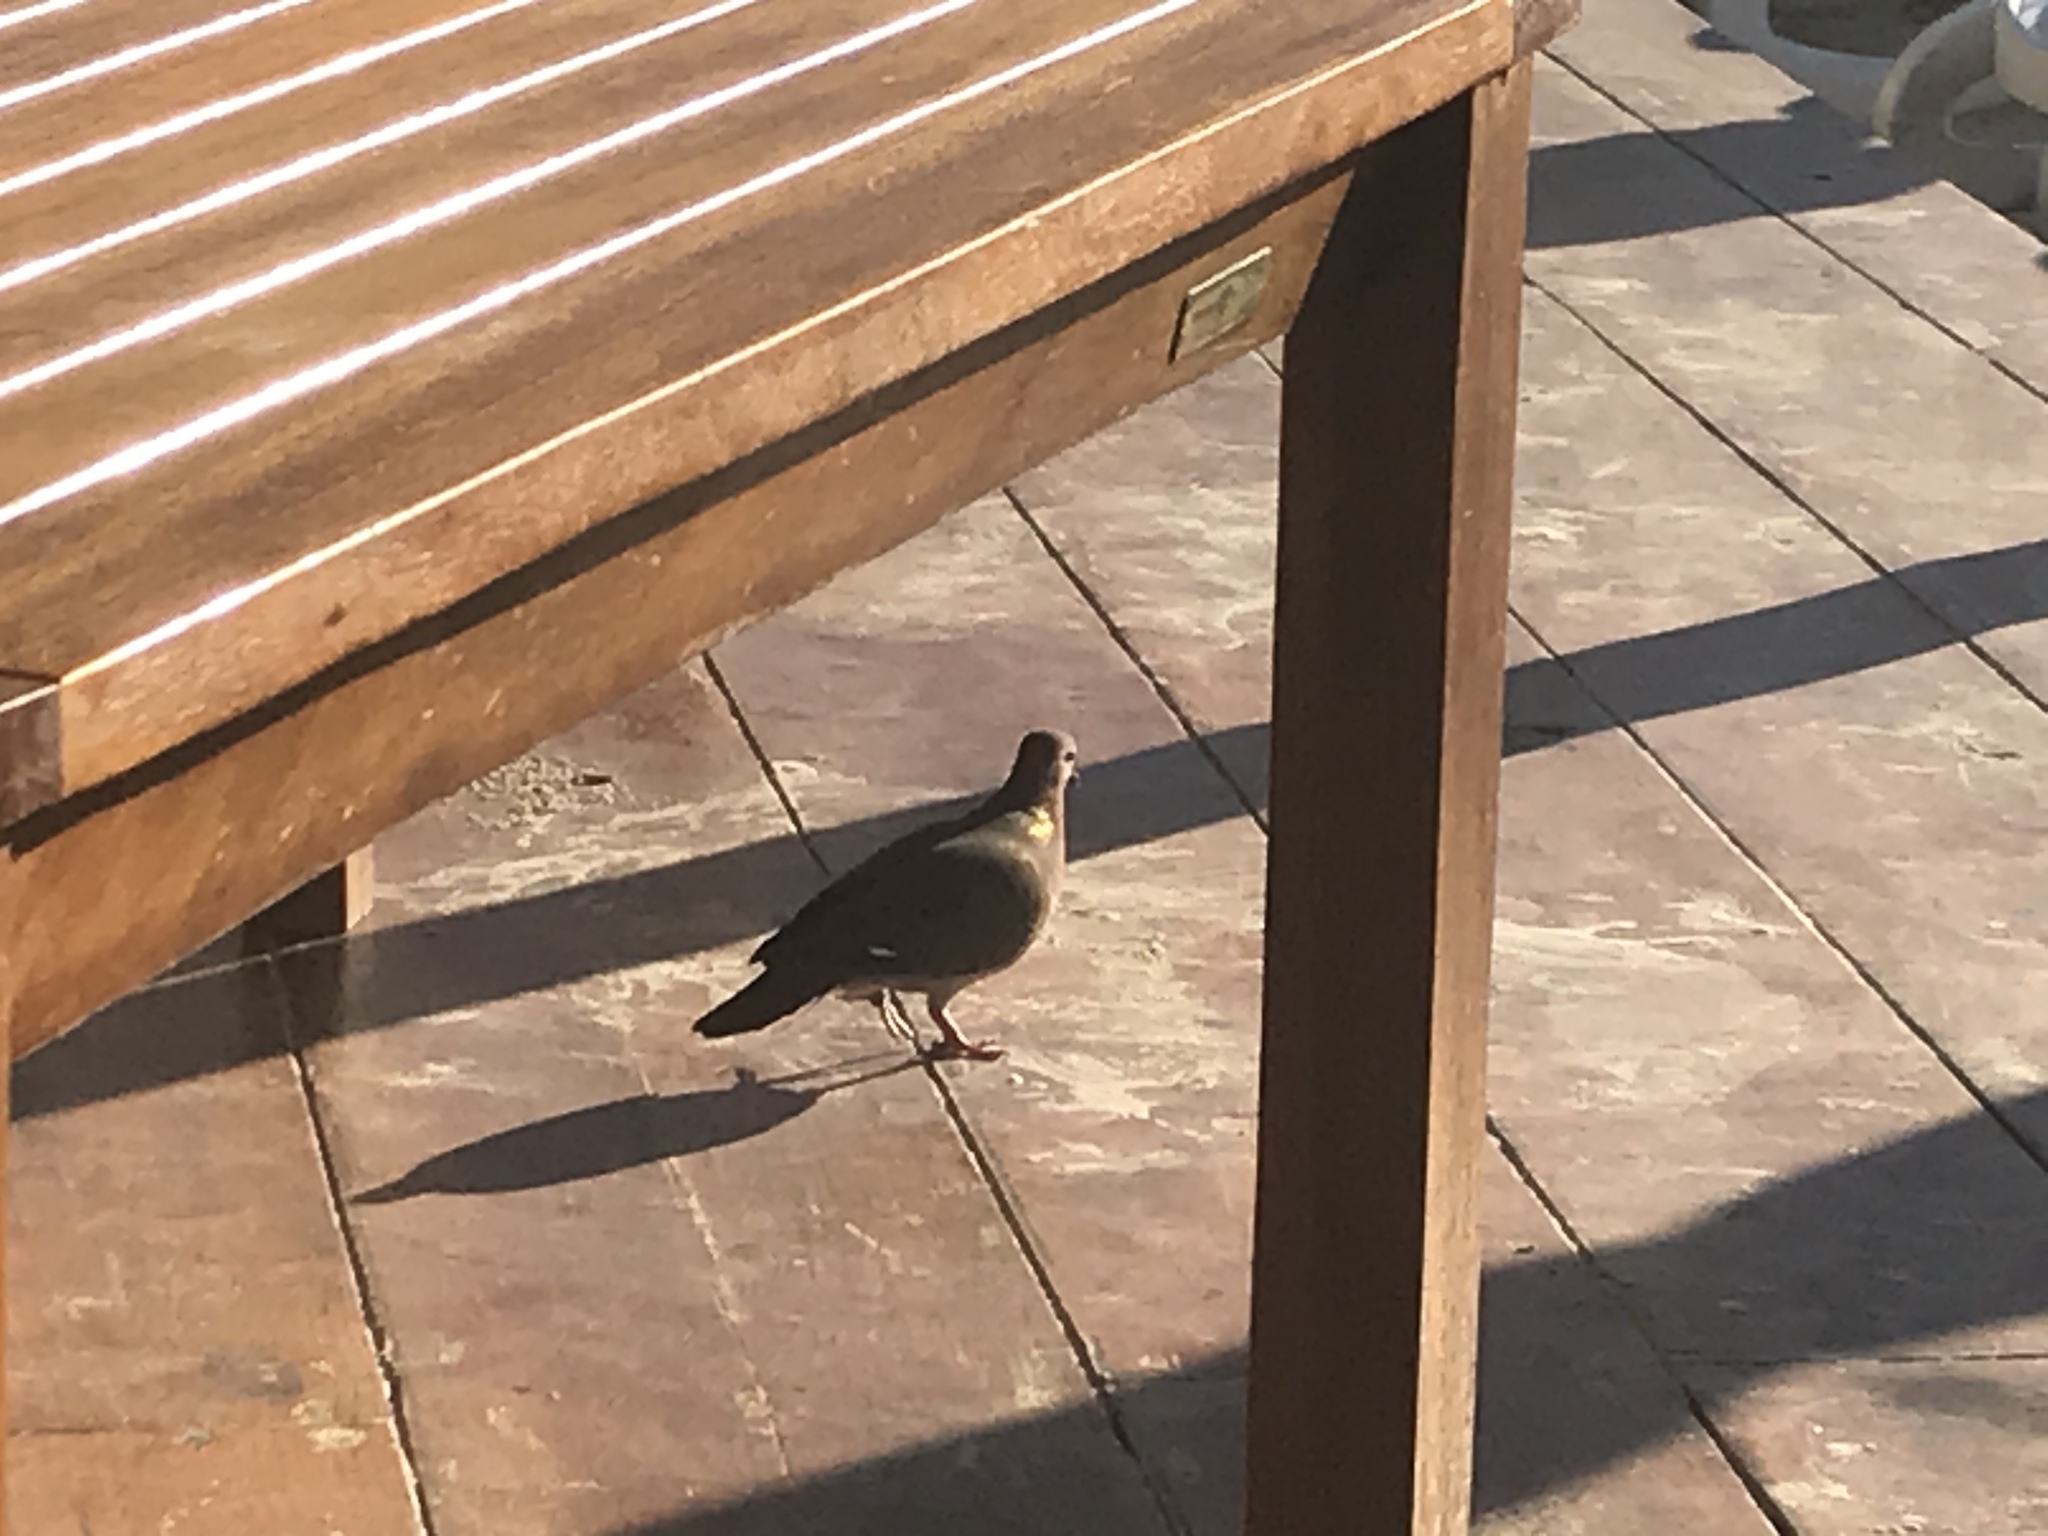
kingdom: Animalia
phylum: Chordata
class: Aves
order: Columbiformes
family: Columbidae
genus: Zenaida
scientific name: Zenaida aurita
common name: Zenaida dove
